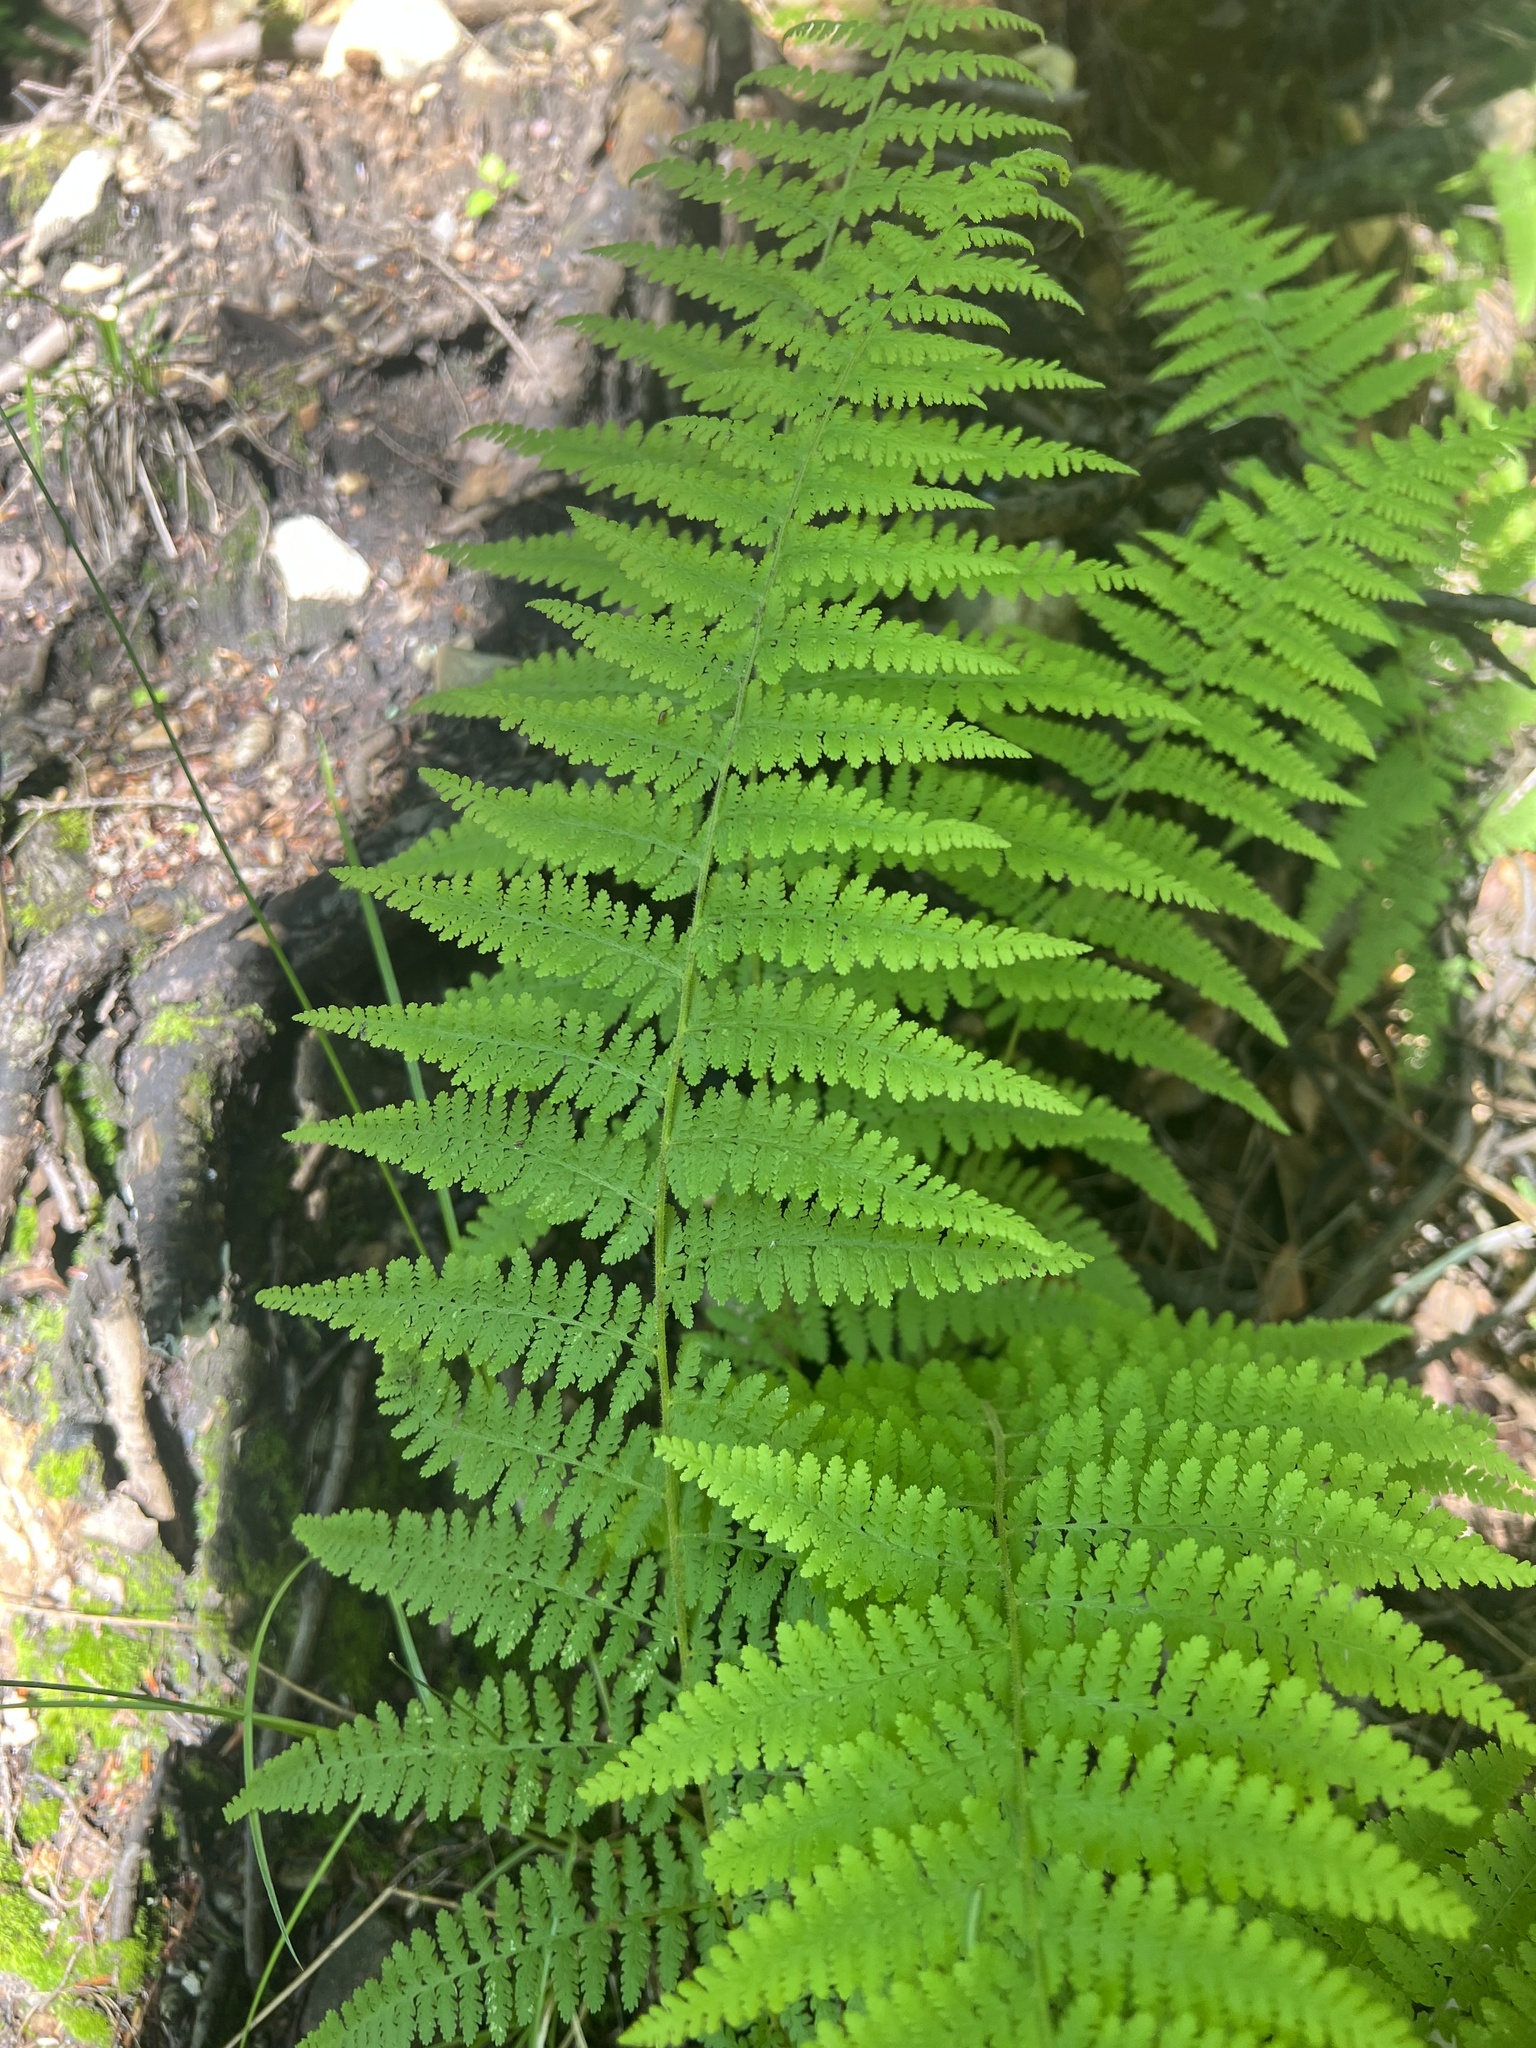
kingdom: Plantae
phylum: Tracheophyta
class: Polypodiopsida
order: Polypodiales
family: Dennstaedtiaceae
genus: Sitobolium
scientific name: Sitobolium punctilobum
